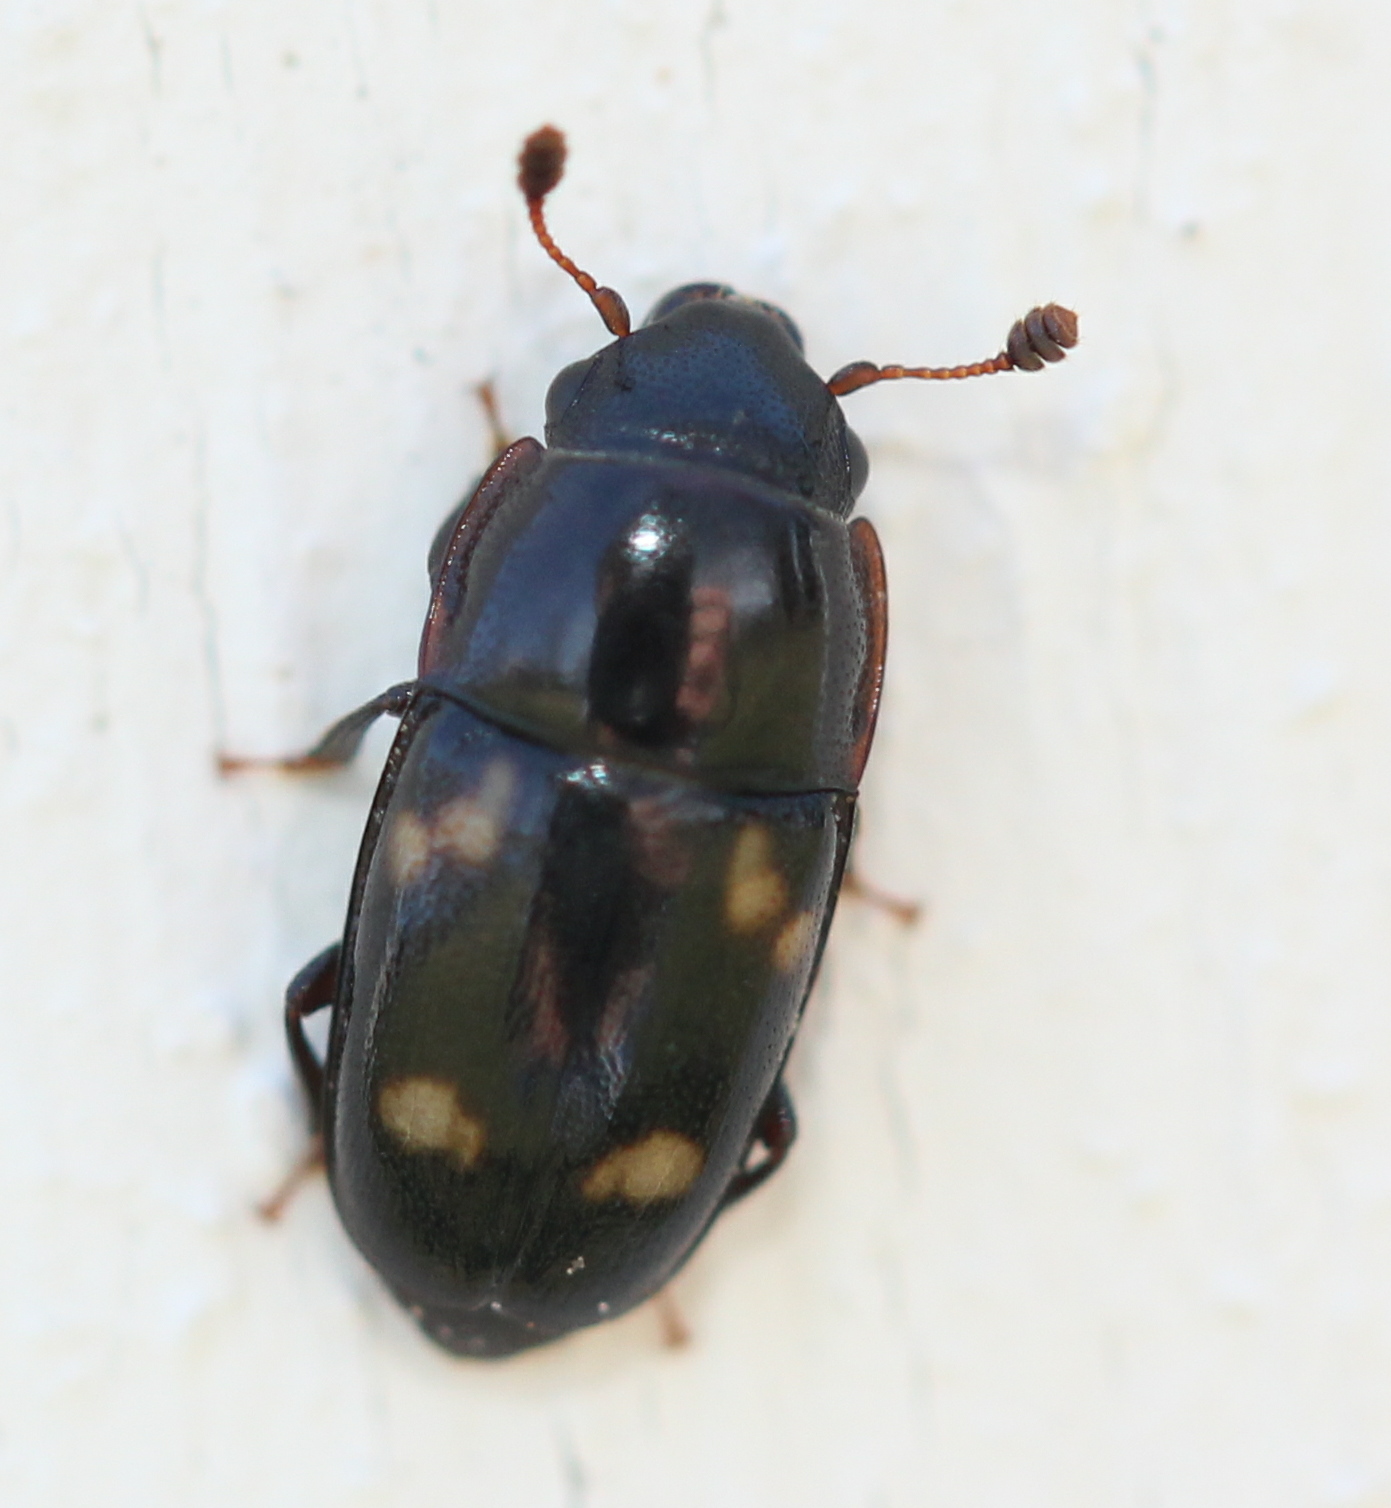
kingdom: Animalia
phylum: Arthropoda
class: Insecta
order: Coleoptera
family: Nitidulidae
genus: Glischrochilus
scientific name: Glischrochilus quadrisignatus
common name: Picnic beetle
